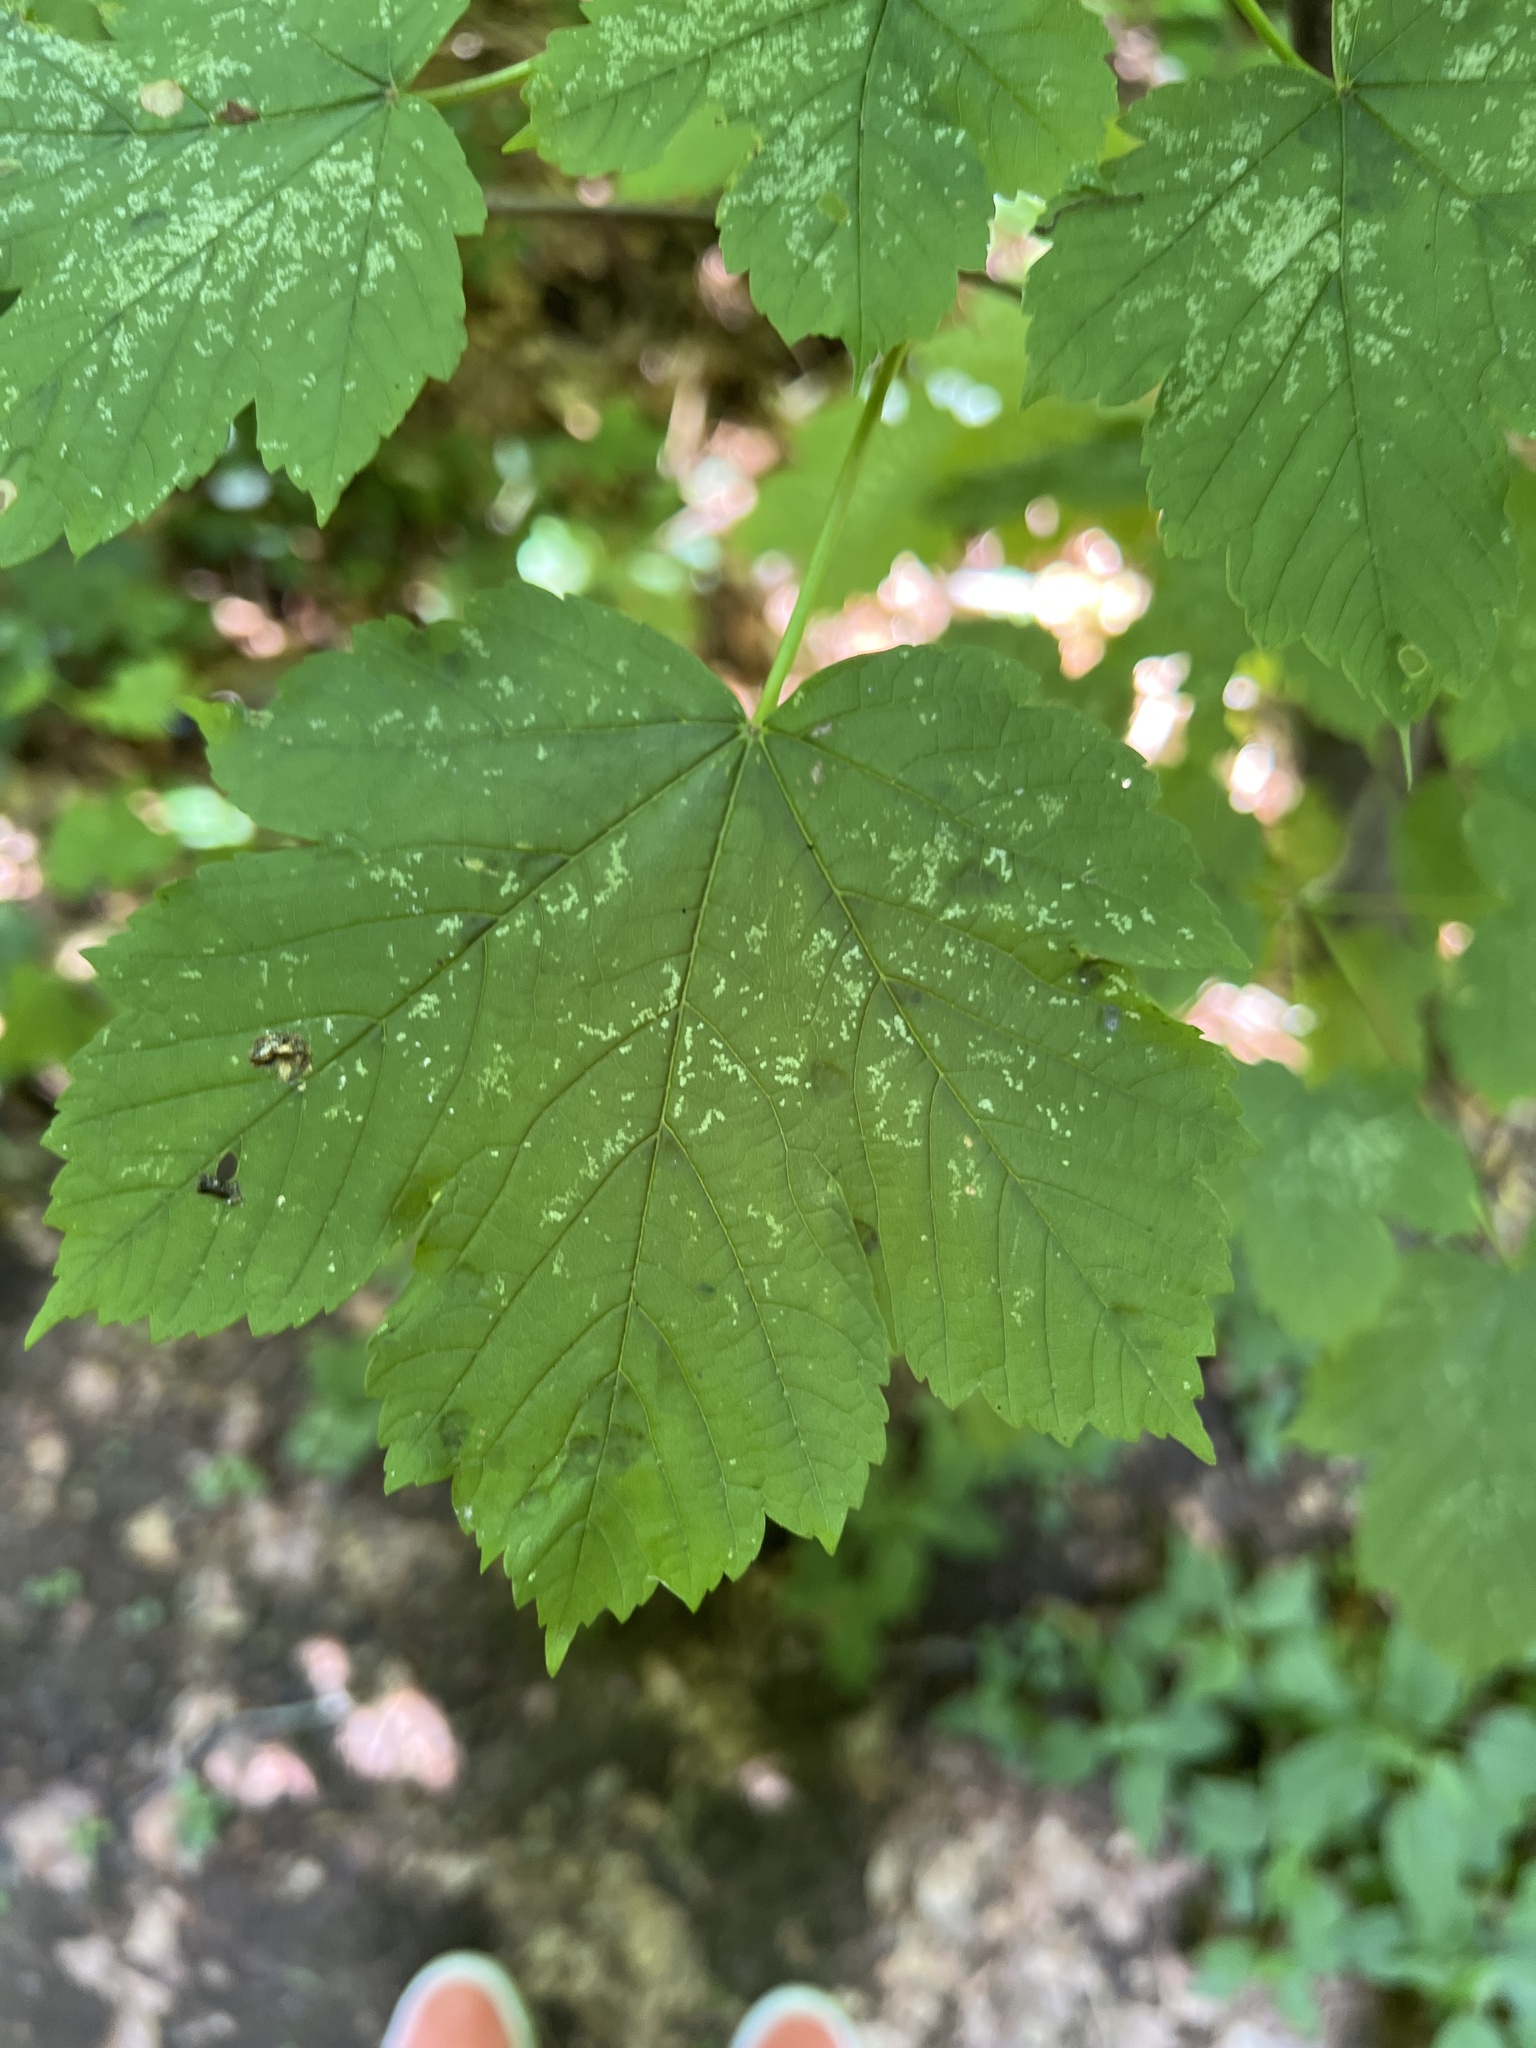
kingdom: Plantae
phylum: Tracheophyta
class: Magnoliopsida
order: Sapindales
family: Sapindaceae
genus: Acer
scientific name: Acer pseudoplatanus
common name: Sycamore
